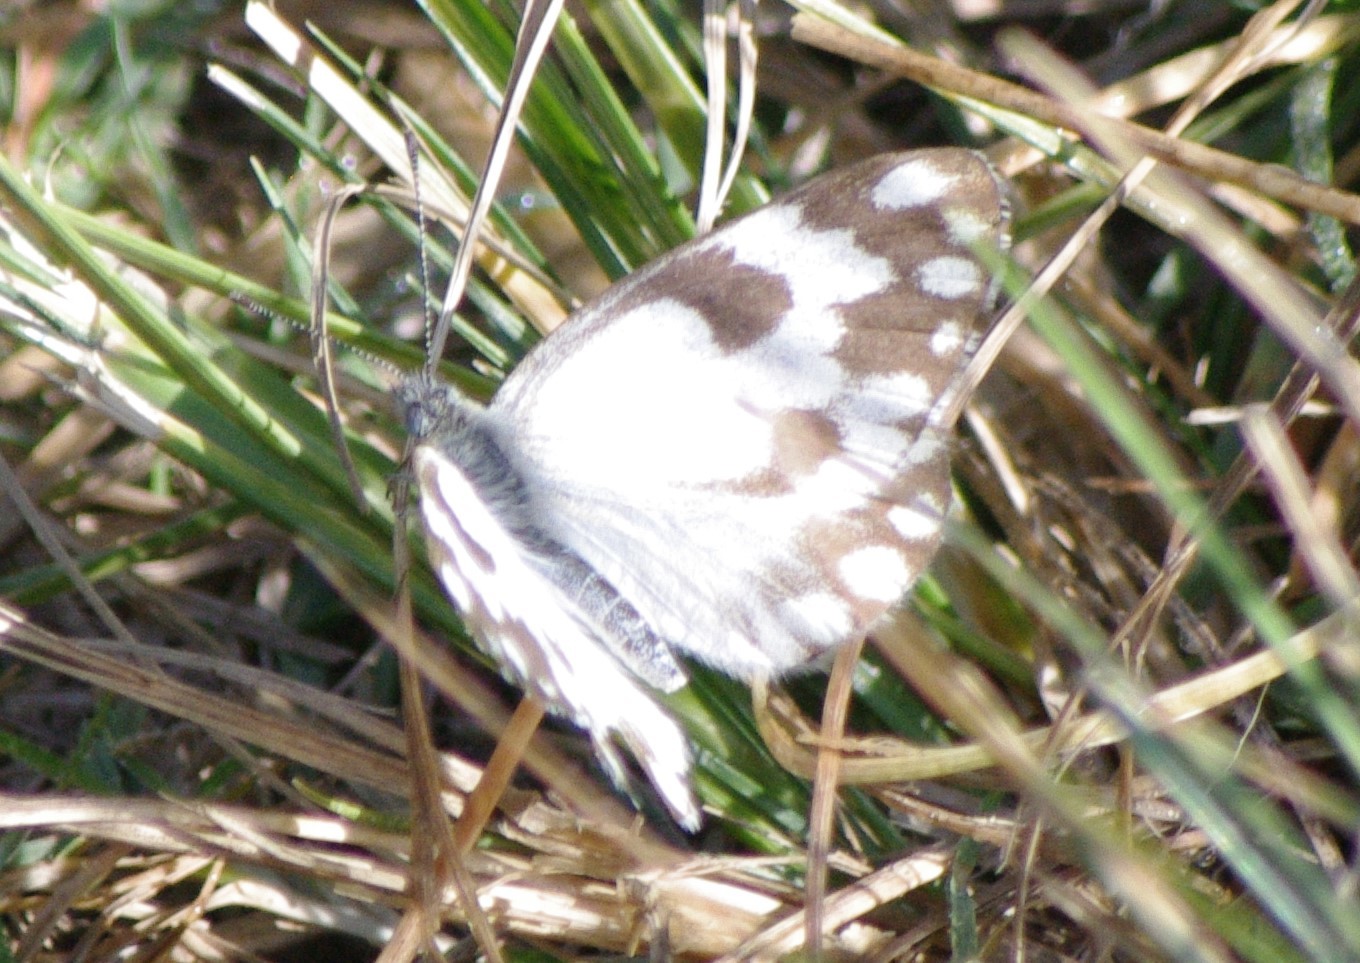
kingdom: Animalia
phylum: Arthropoda
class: Insecta
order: Lepidoptera
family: Pieridae
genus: Pontia
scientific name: Pontia helice
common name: Meadow white
